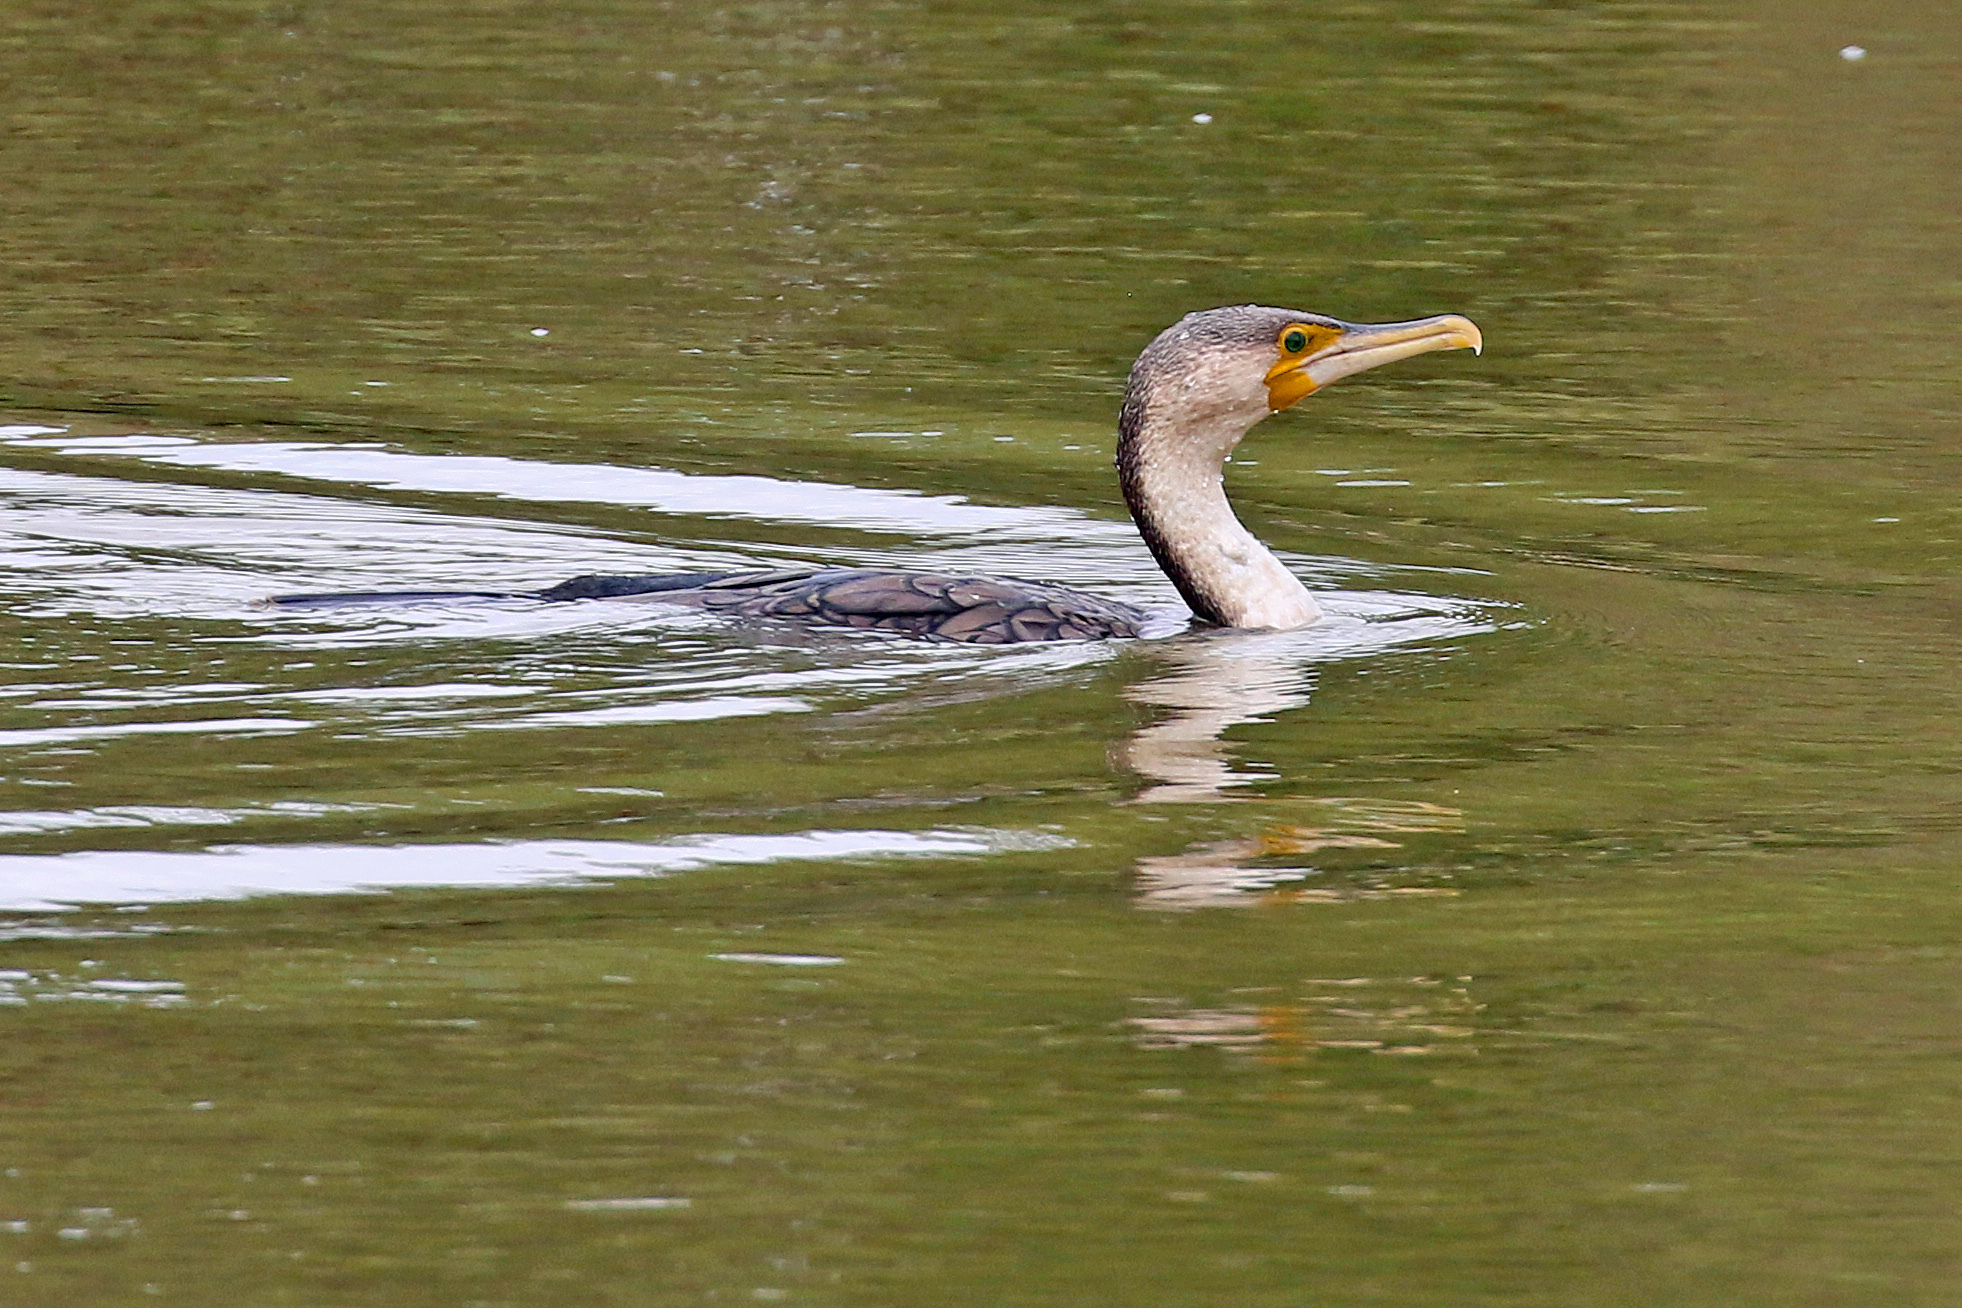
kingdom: Animalia
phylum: Chordata
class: Aves
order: Suliformes
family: Phalacrocoracidae
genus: Phalacrocorax
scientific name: Phalacrocorax carbo
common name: Great cormorant
